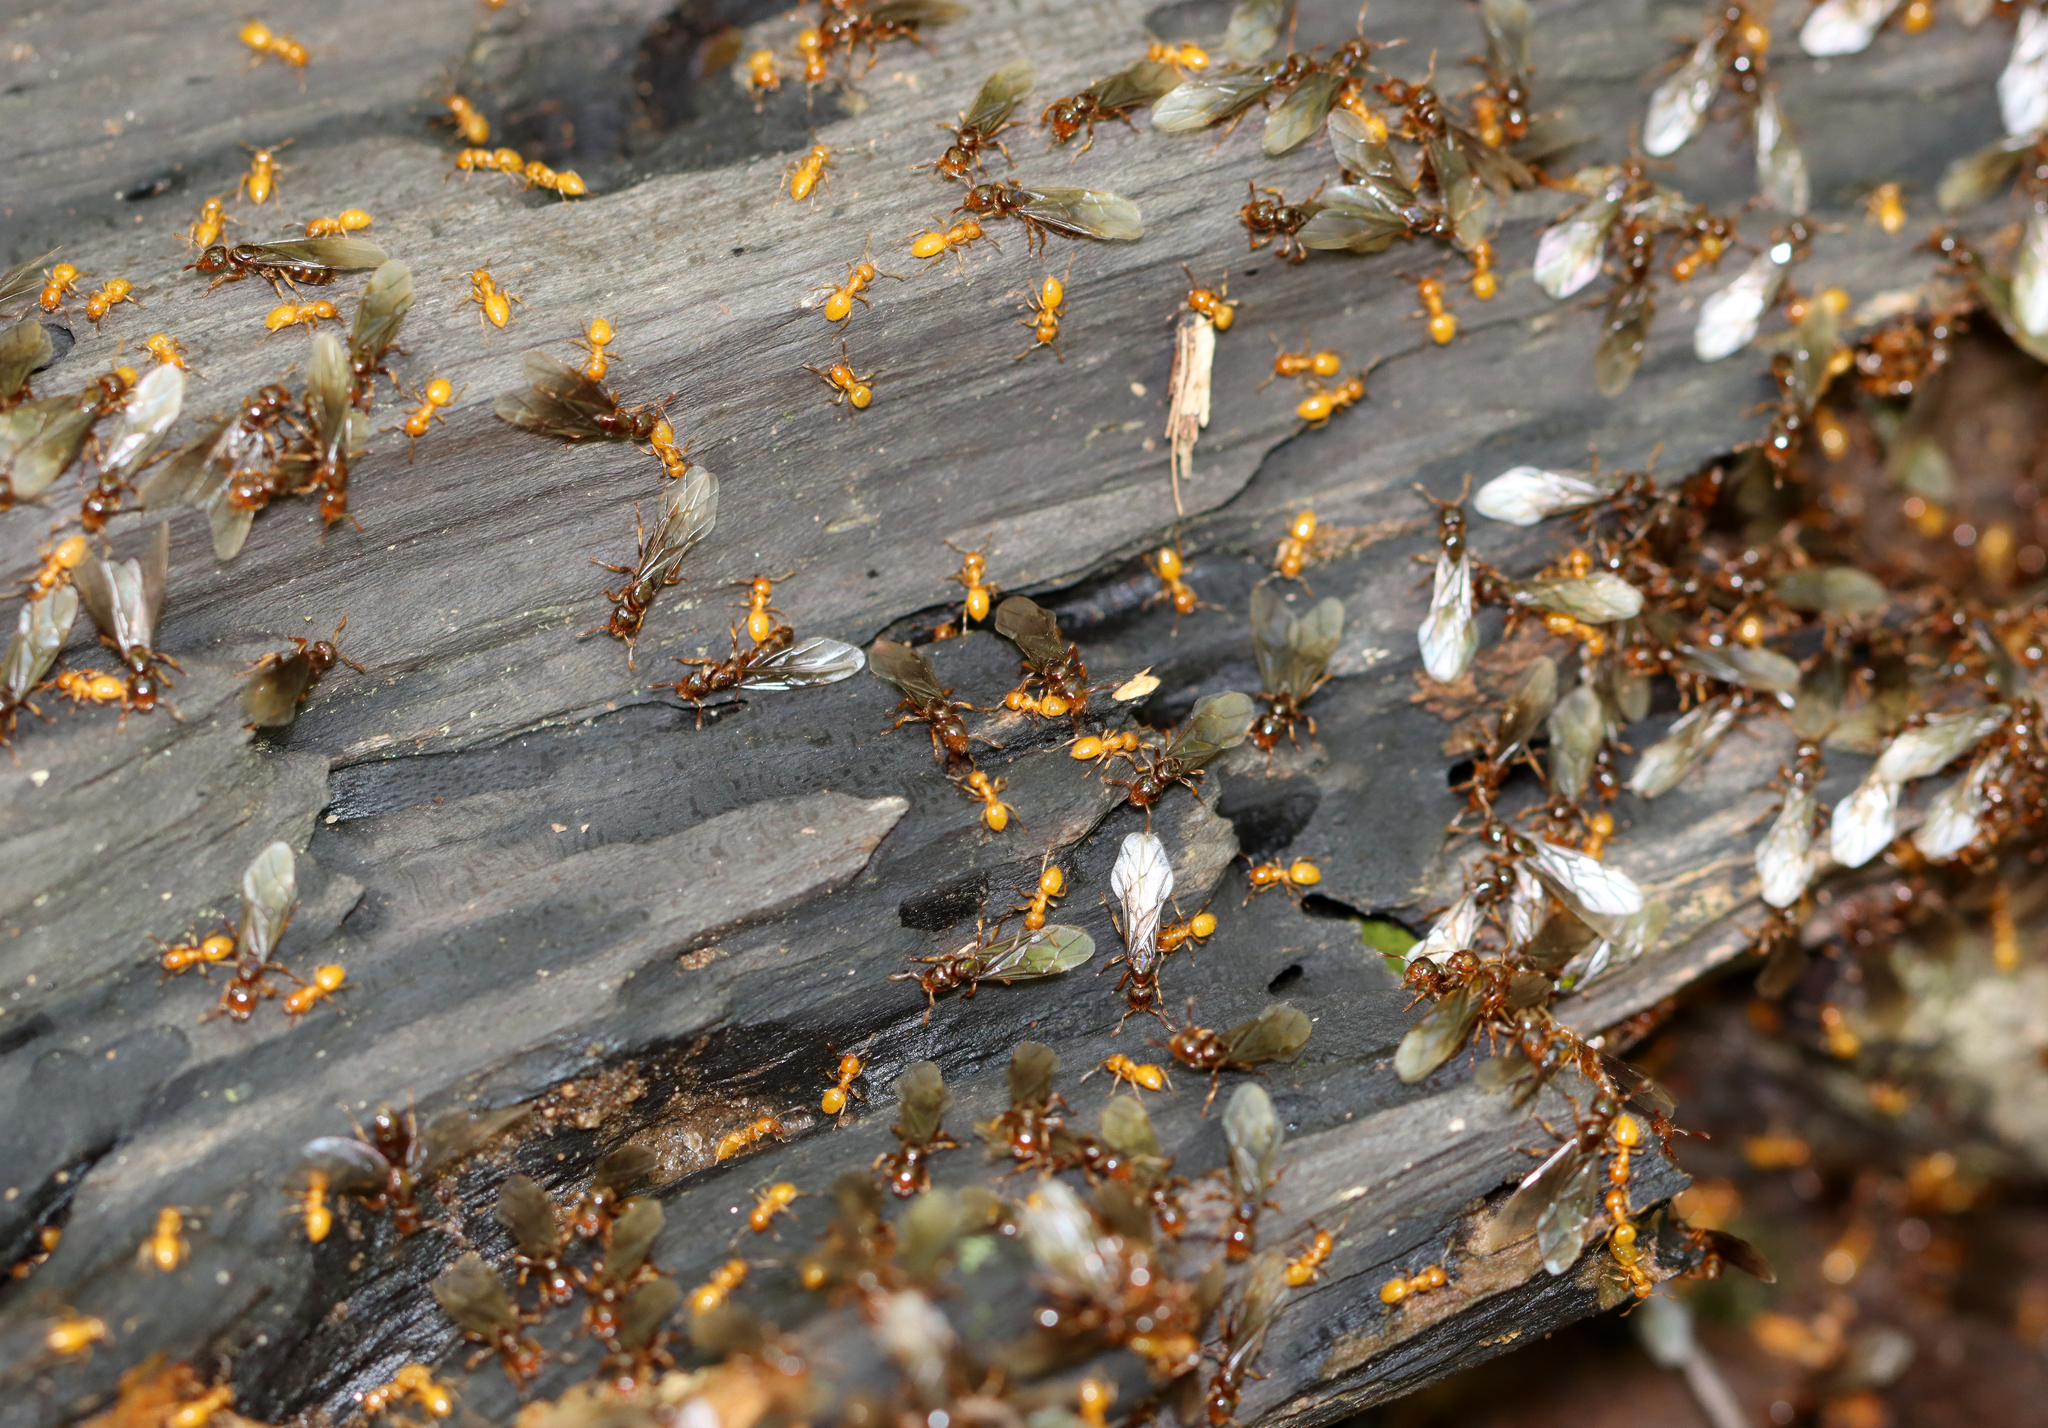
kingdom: Animalia
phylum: Arthropoda
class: Insecta
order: Hymenoptera
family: Formicidae
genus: Lasius
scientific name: Lasius claviger
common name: Common citronella ant
